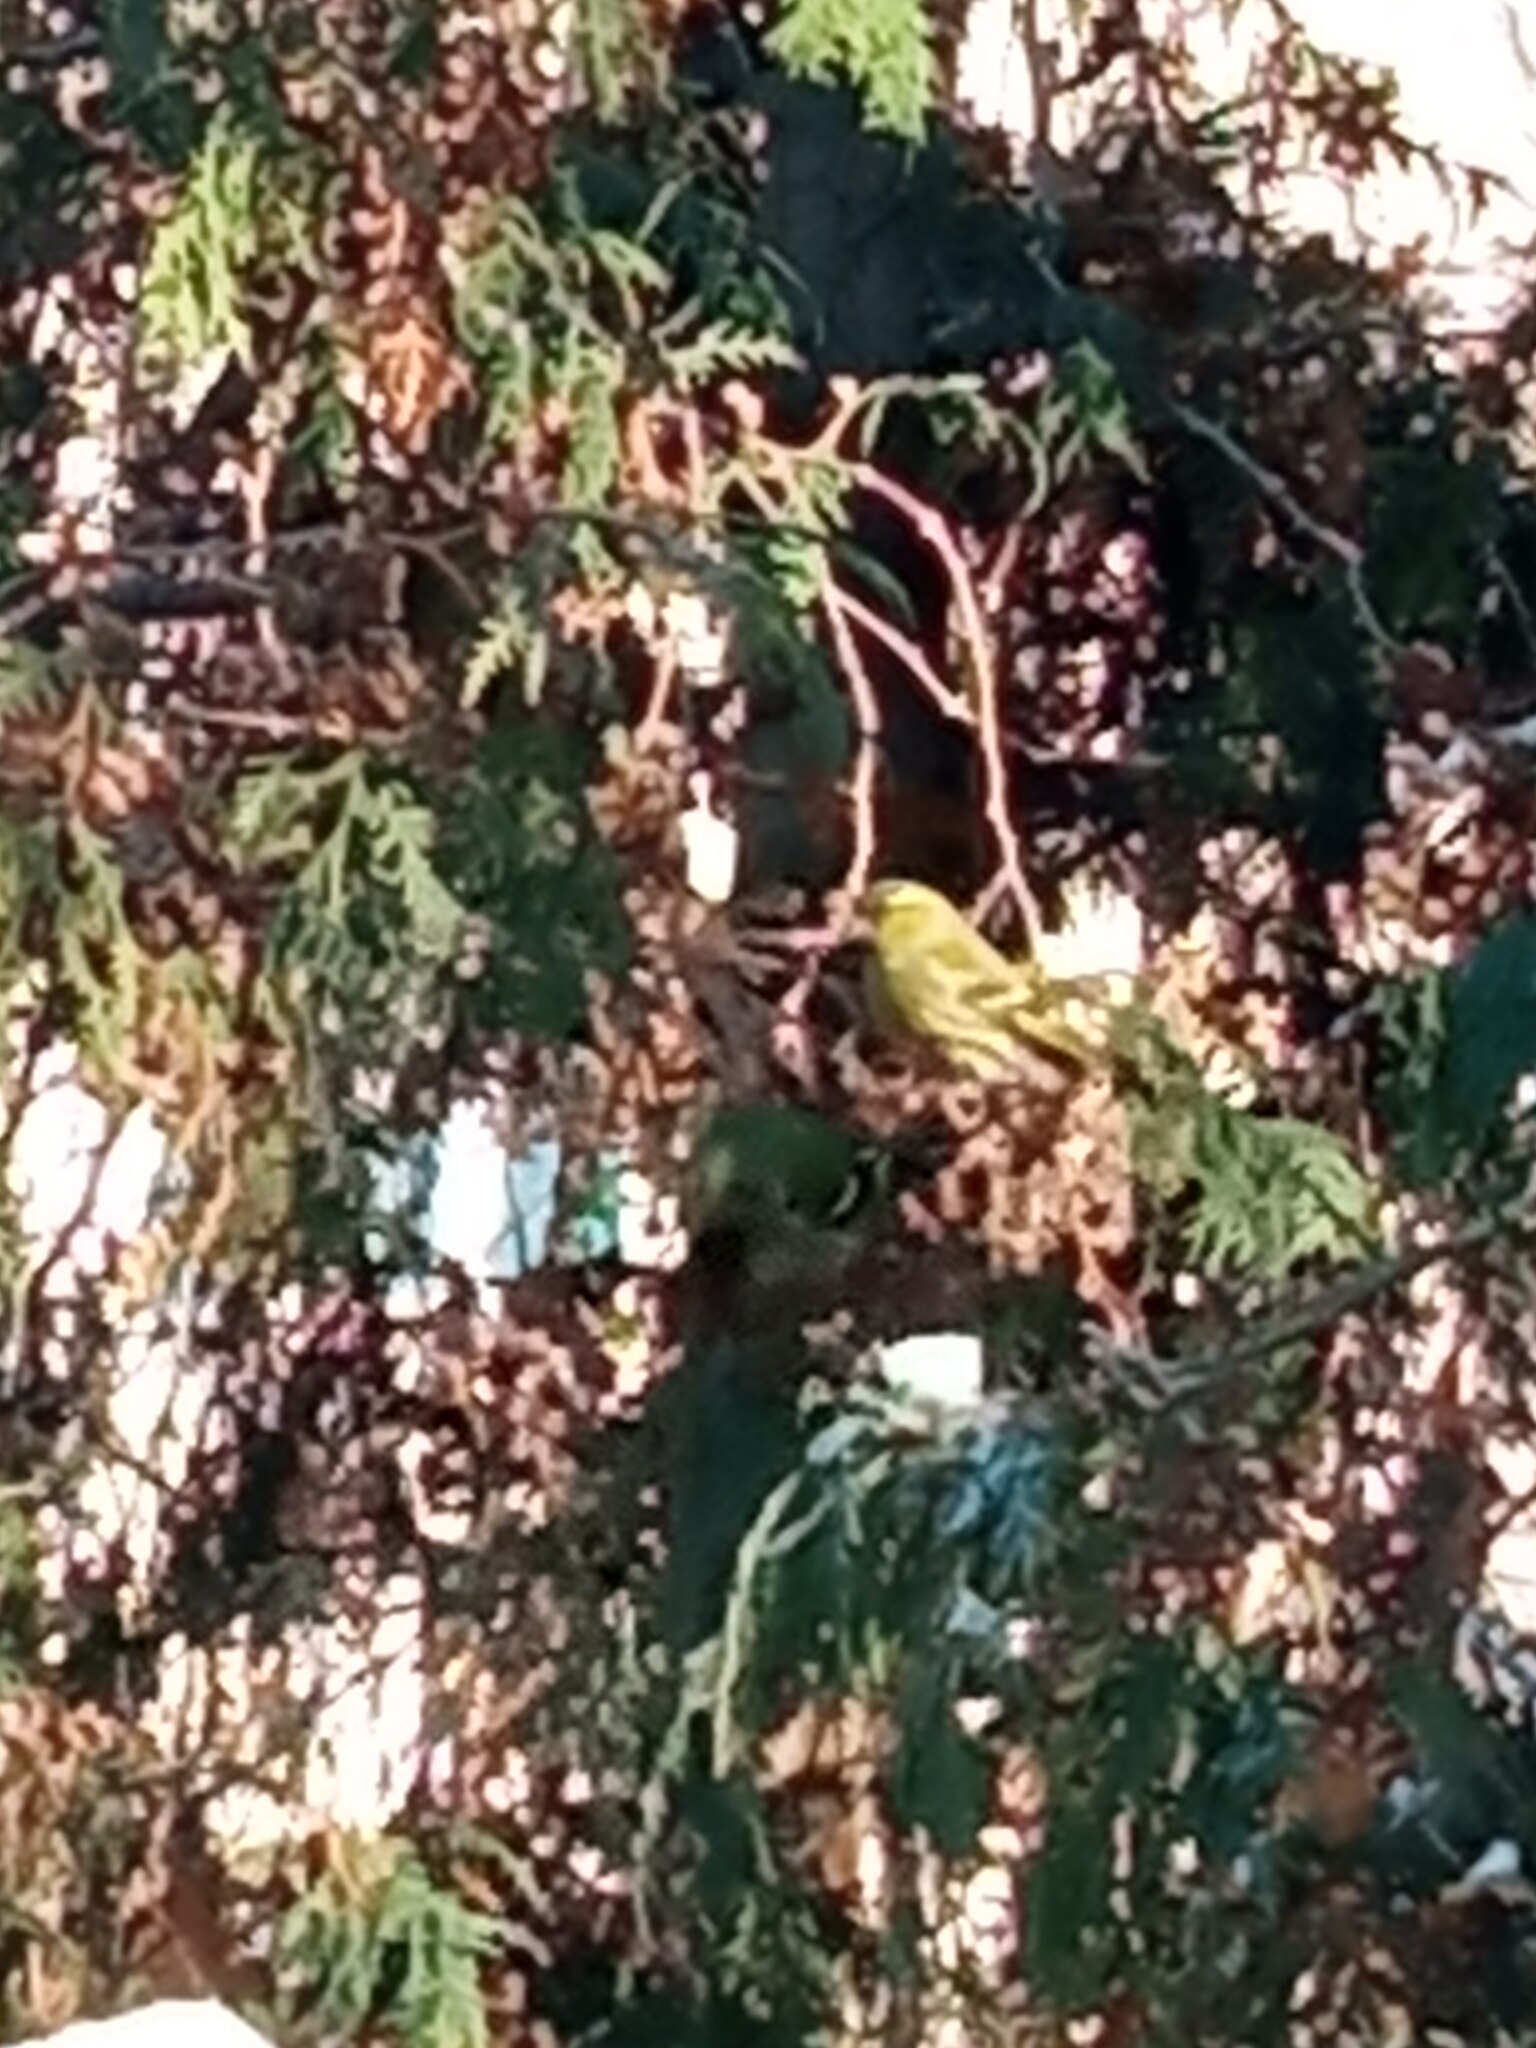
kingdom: Animalia
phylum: Chordata
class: Aves
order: Passeriformes
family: Fringillidae
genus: Spinus
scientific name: Spinus spinus
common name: Eurasian siskin
